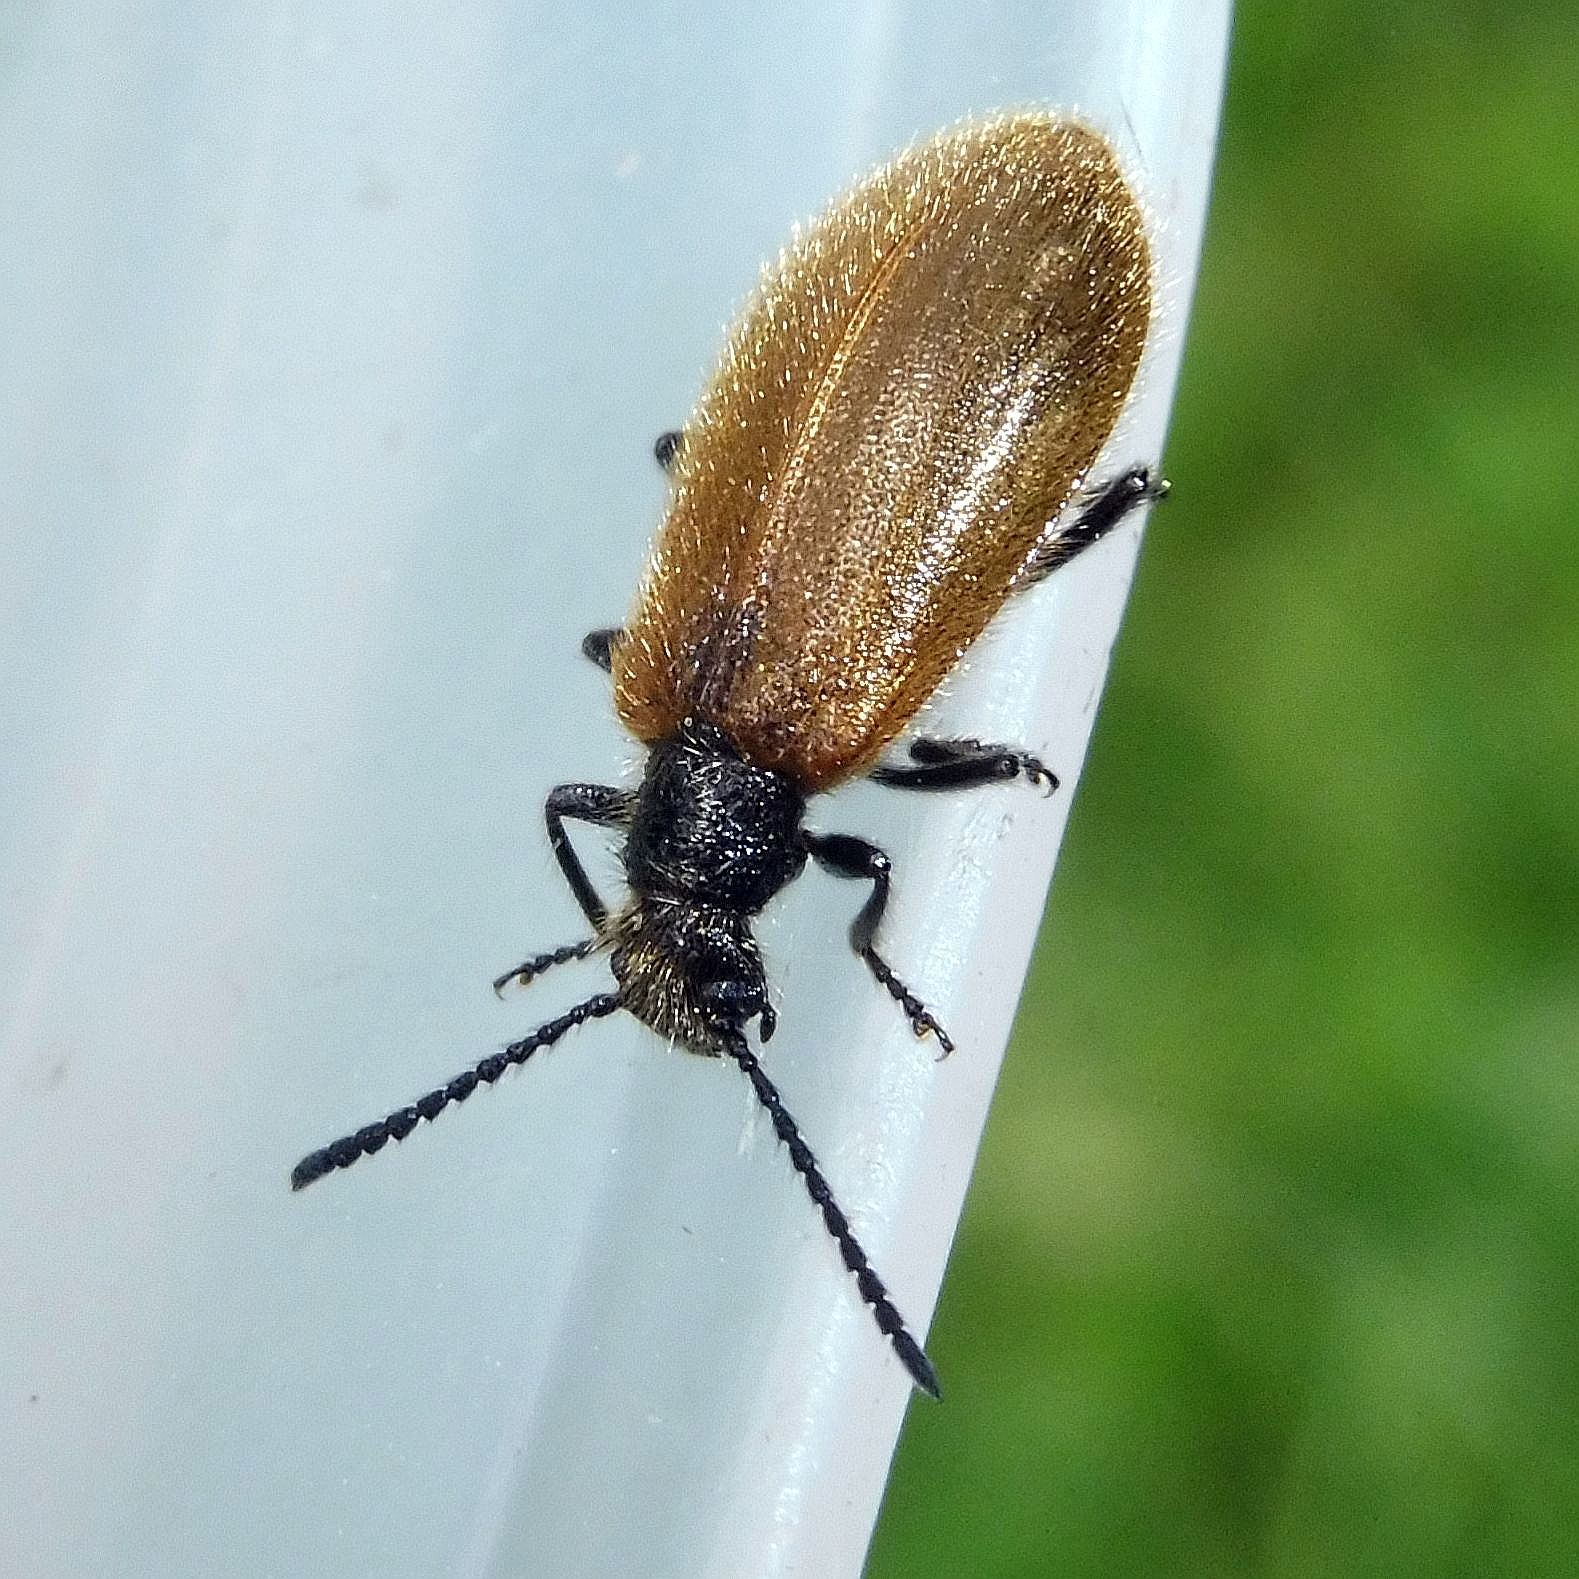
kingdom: Animalia
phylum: Arthropoda
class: Insecta
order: Coleoptera
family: Tenebrionidae
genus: Lagria
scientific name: Lagria hirta
